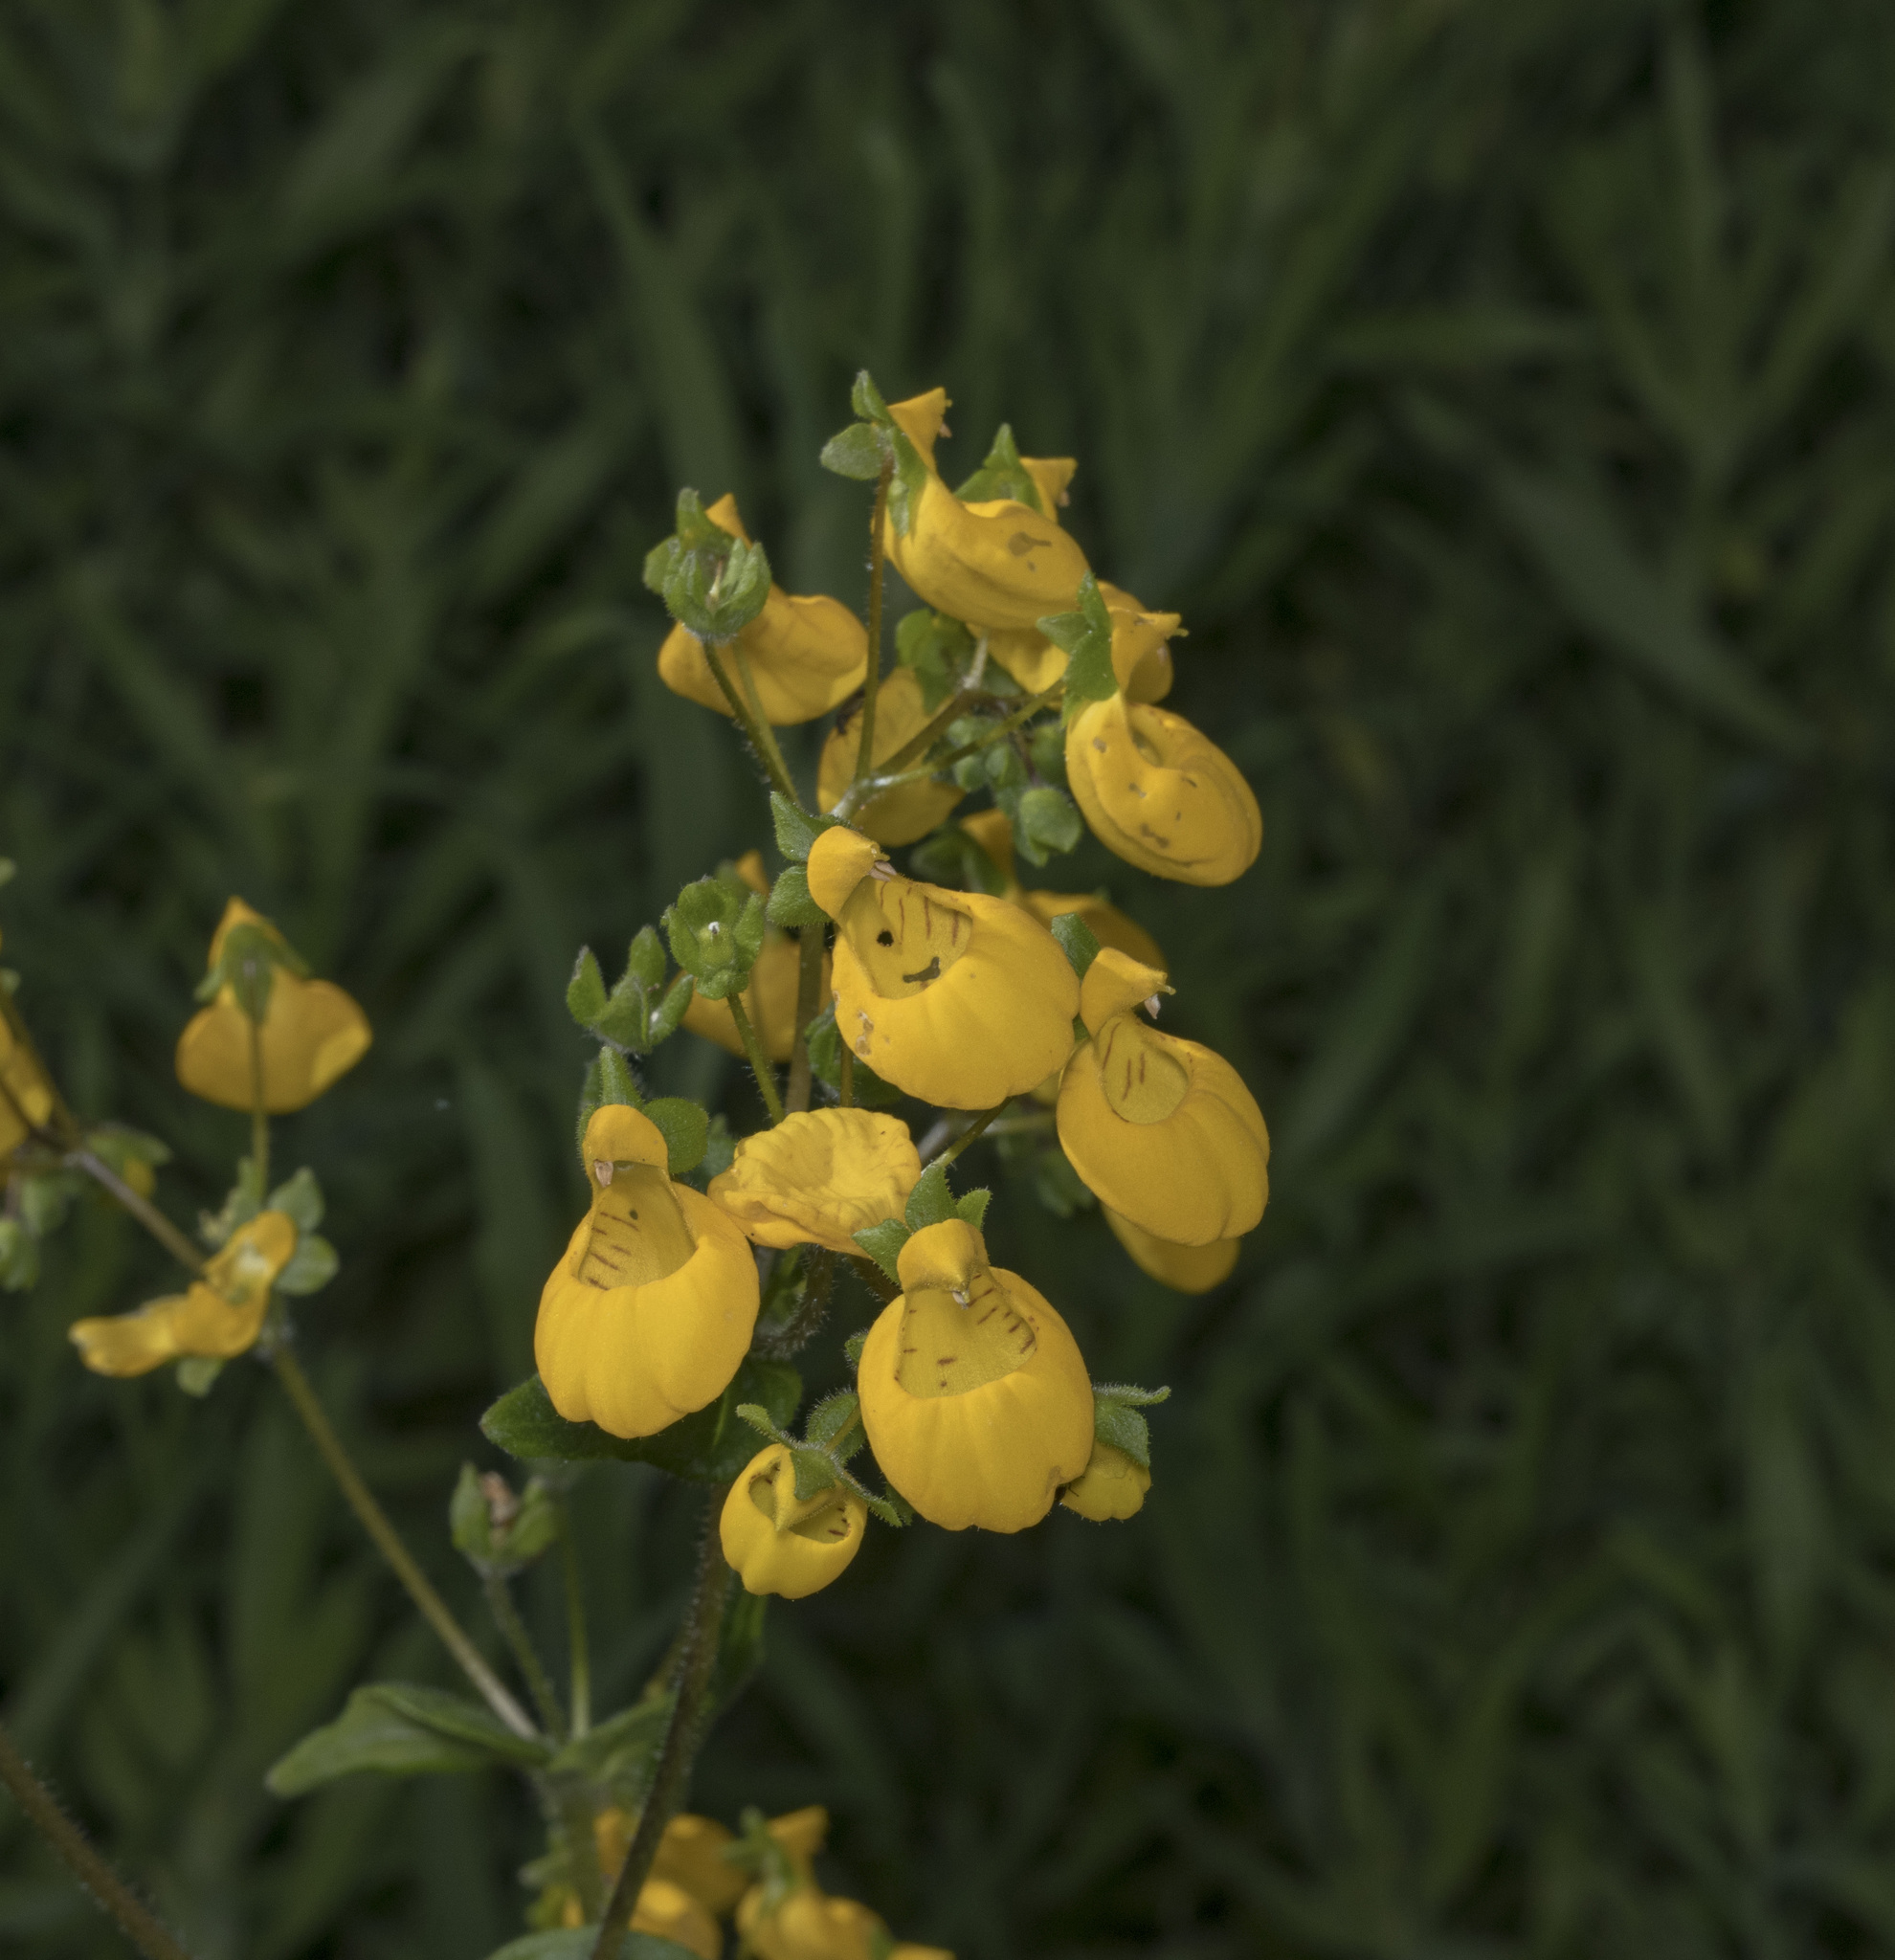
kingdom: Plantae
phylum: Tracheophyta
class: Magnoliopsida
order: Lamiales
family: Calceolariaceae
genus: Calceolaria
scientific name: Calceolaria corymbosa
